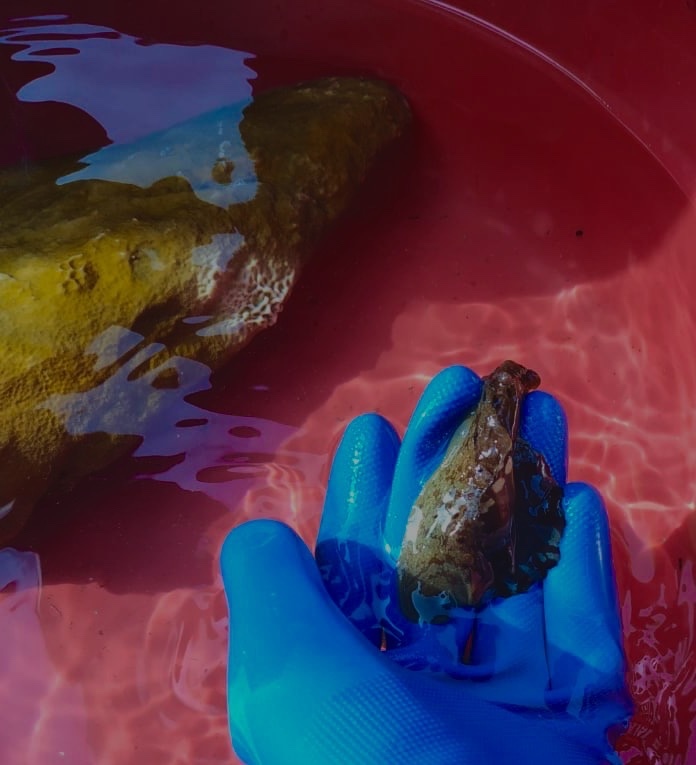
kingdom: Animalia
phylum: Mollusca
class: Gastropoda
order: Aplysiida
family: Aplysiidae
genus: Aplysia
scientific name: Aplysia brasiliana
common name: Mottled seahare
